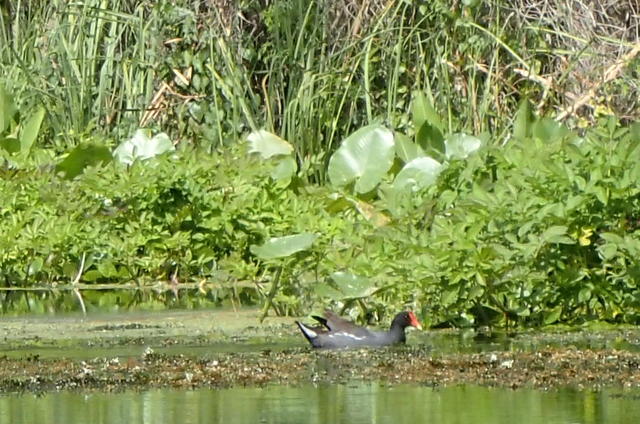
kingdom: Animalia
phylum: Chordata
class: Aves
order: Gruiformes
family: Rallidae
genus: Gallinula
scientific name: Gallinula chloropus
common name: Common moorhen
